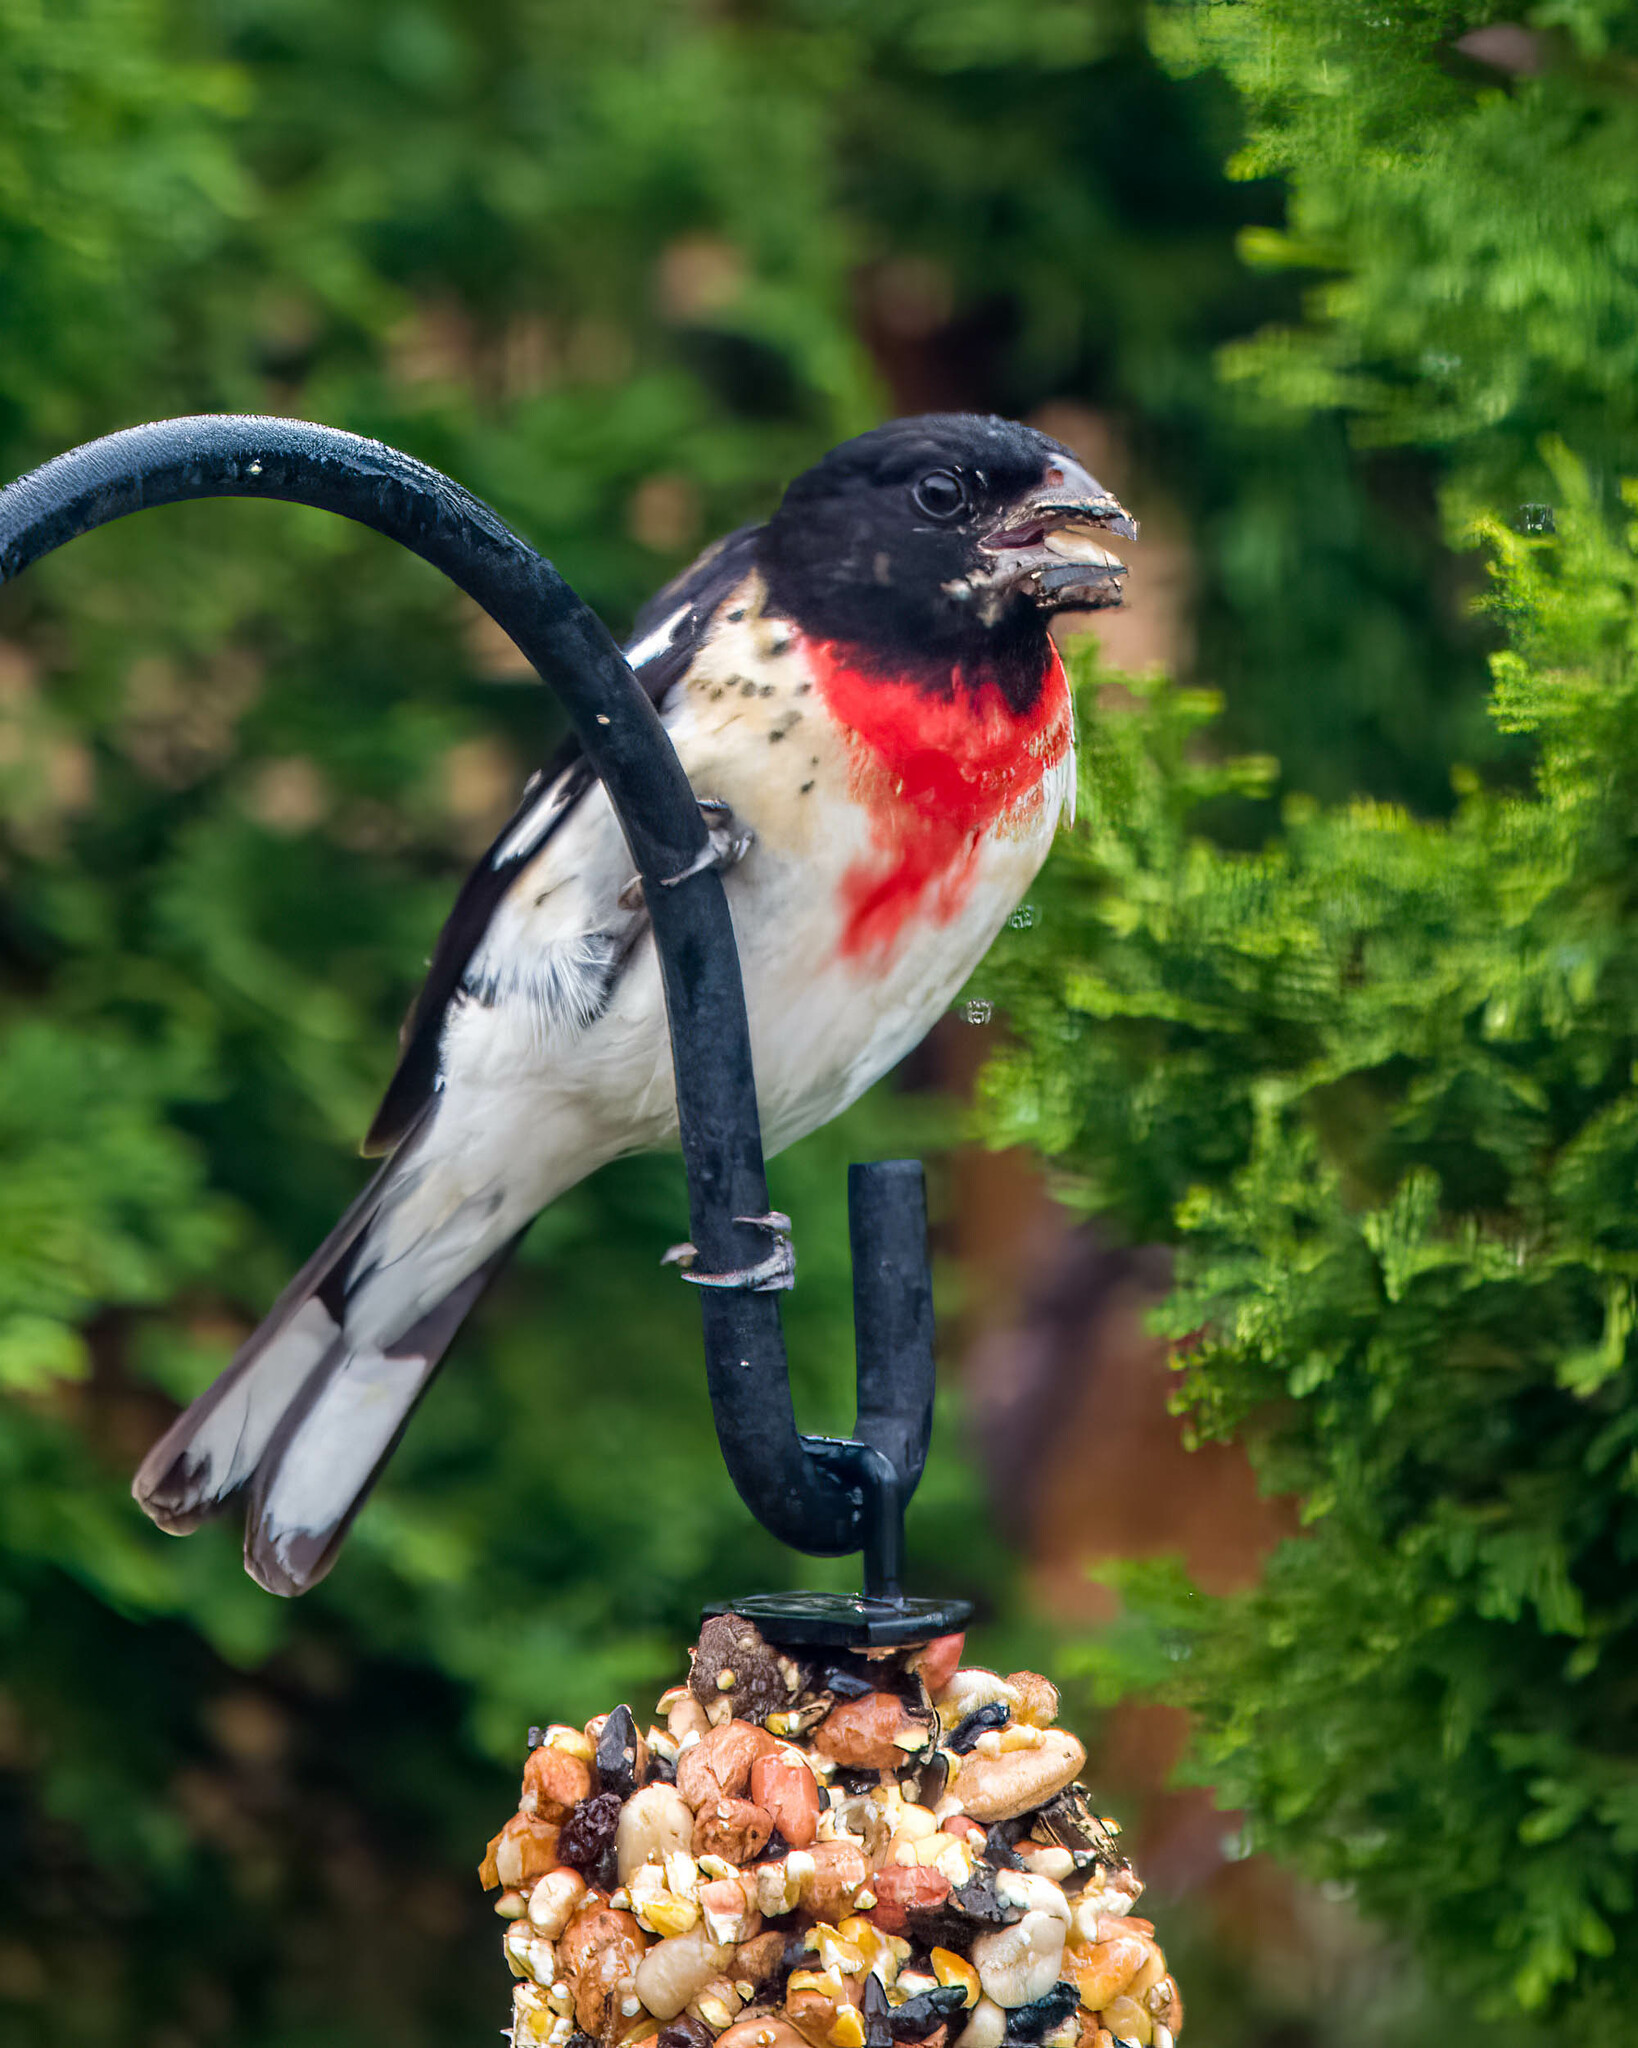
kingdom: Animalia
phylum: Chordata
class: Aves
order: Passeriformes
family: Cardinalidae
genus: Pheucticus
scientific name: Pheucticus ludovicianus
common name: Rose-breasted grosbeak
